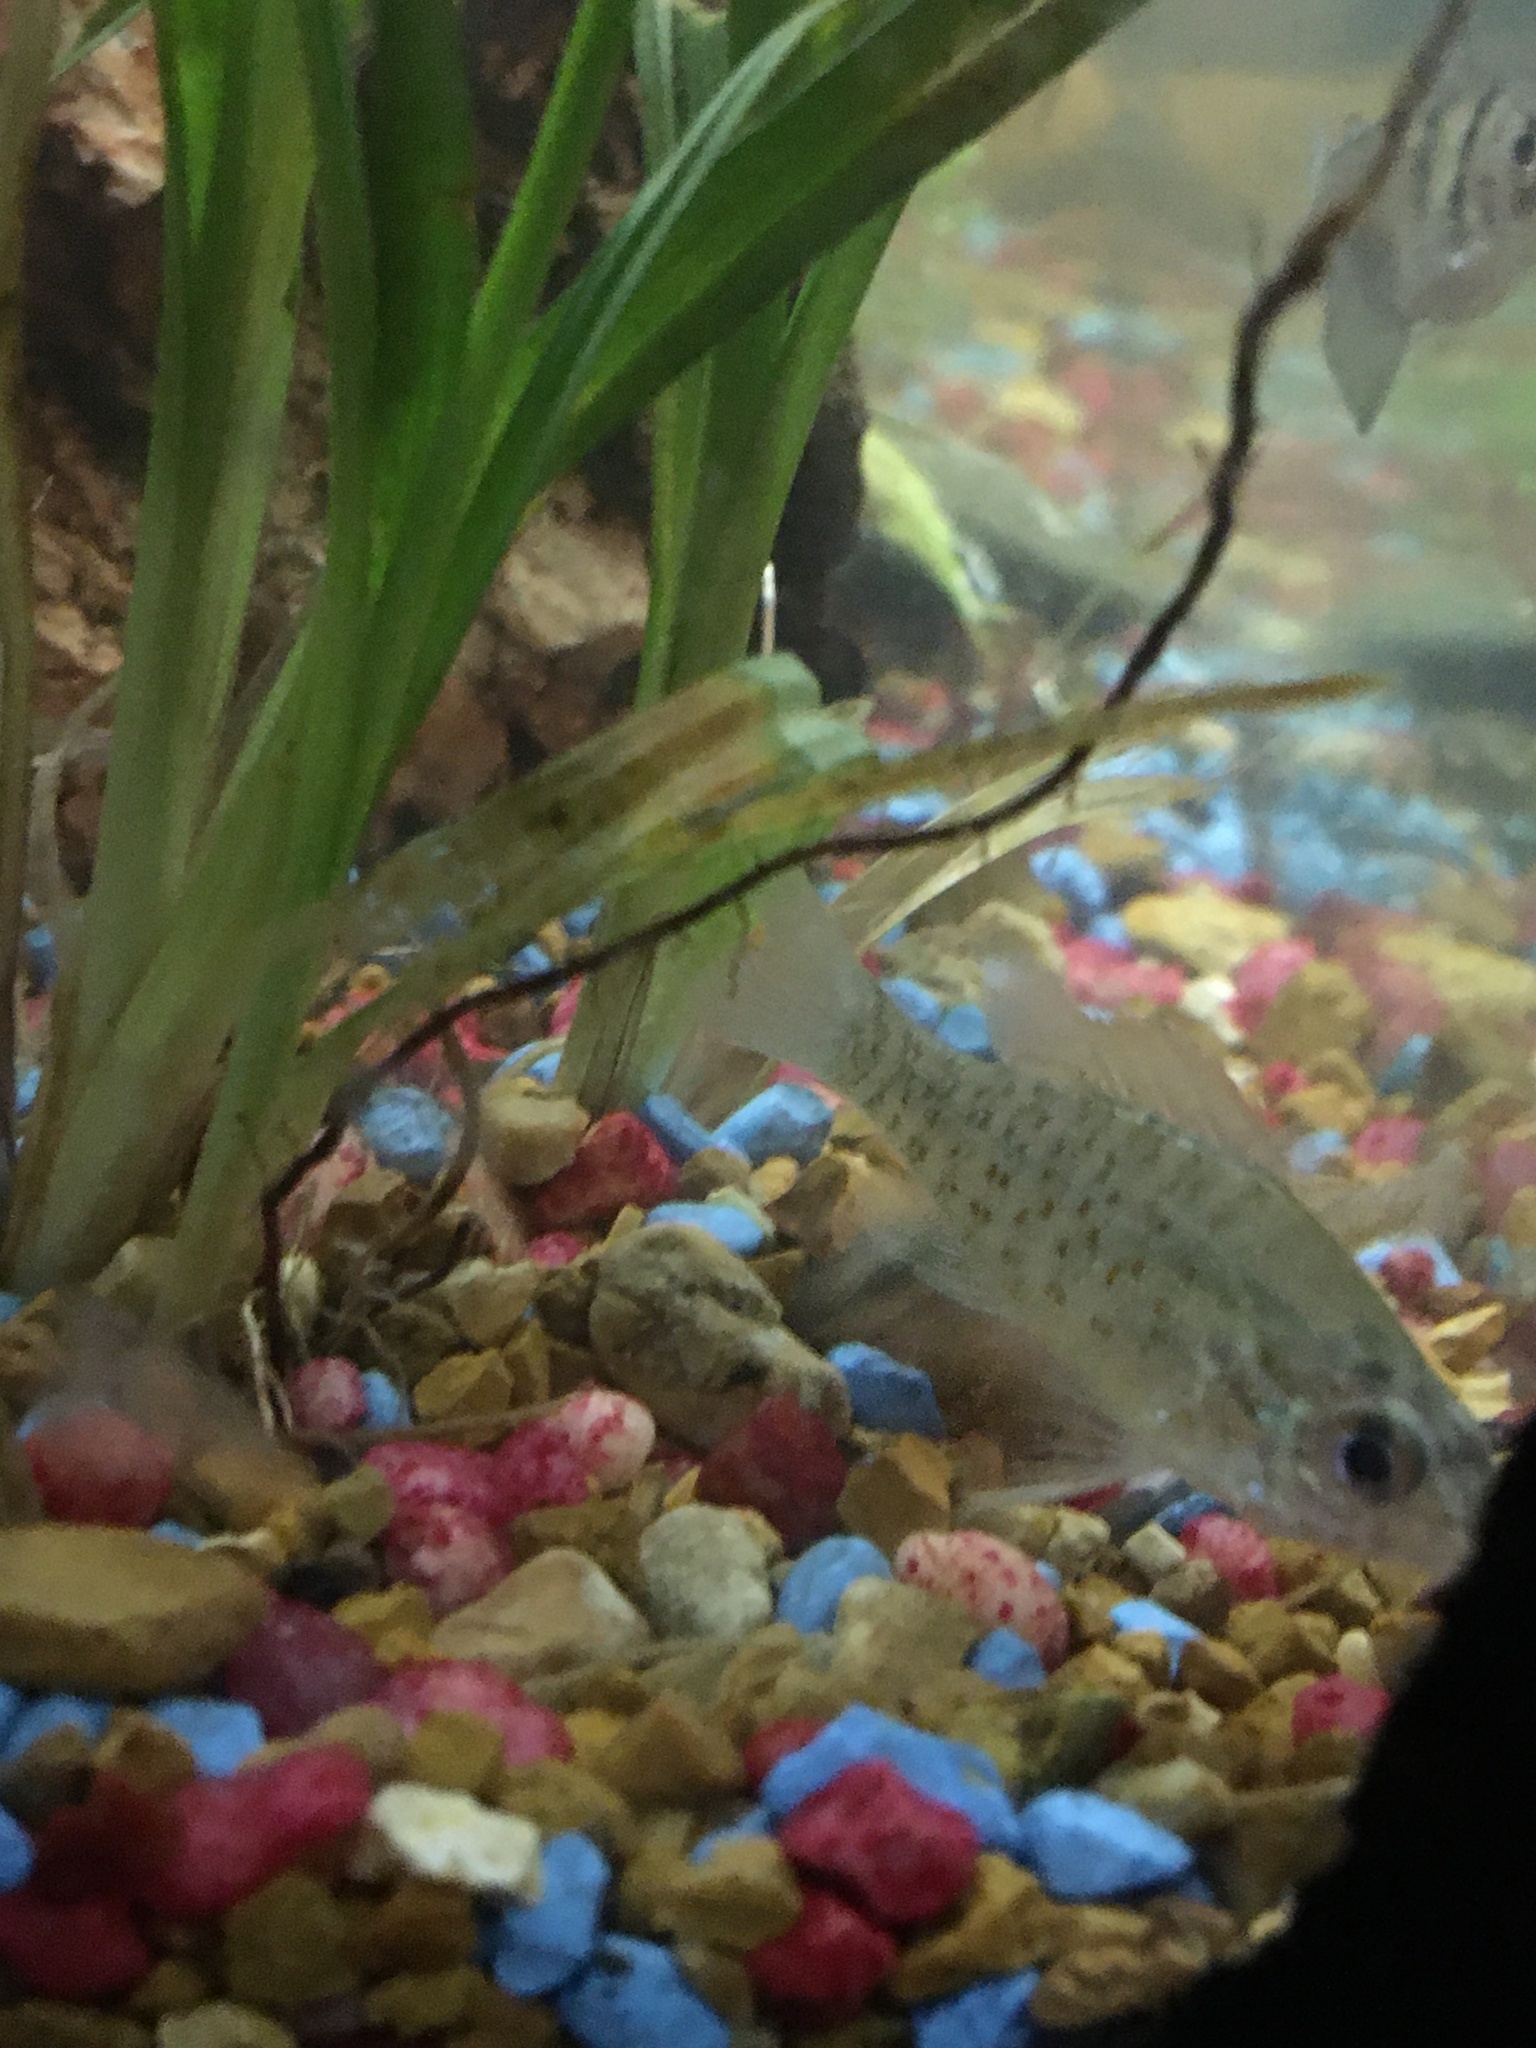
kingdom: Animalia
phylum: Chordata
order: Perciformes
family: Centrarchidae
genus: Lepomis
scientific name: Lepomis humilis
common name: Orangespotted sunfish
